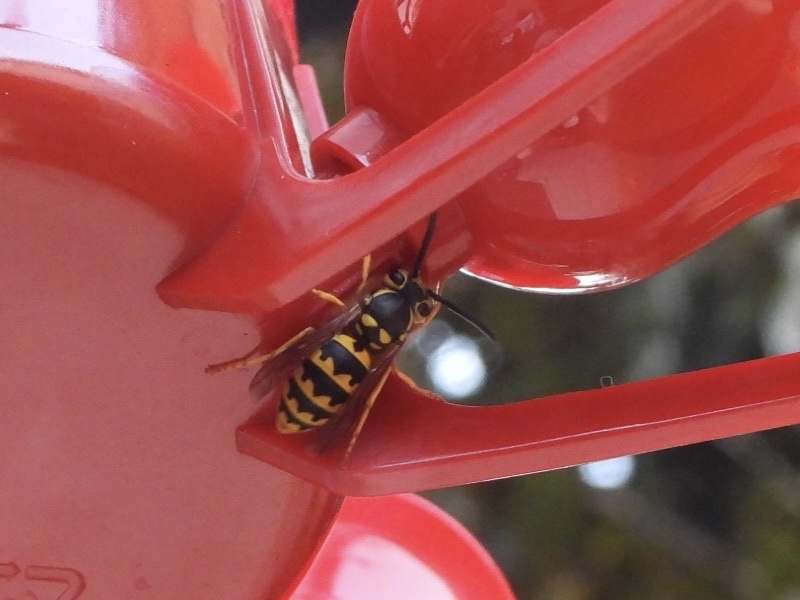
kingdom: Animalia
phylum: Arthropoda
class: Insecta
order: Hymenoptera
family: Vespidae
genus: Vespula
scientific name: Vespula pensylvanica
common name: Western yellowjacket
